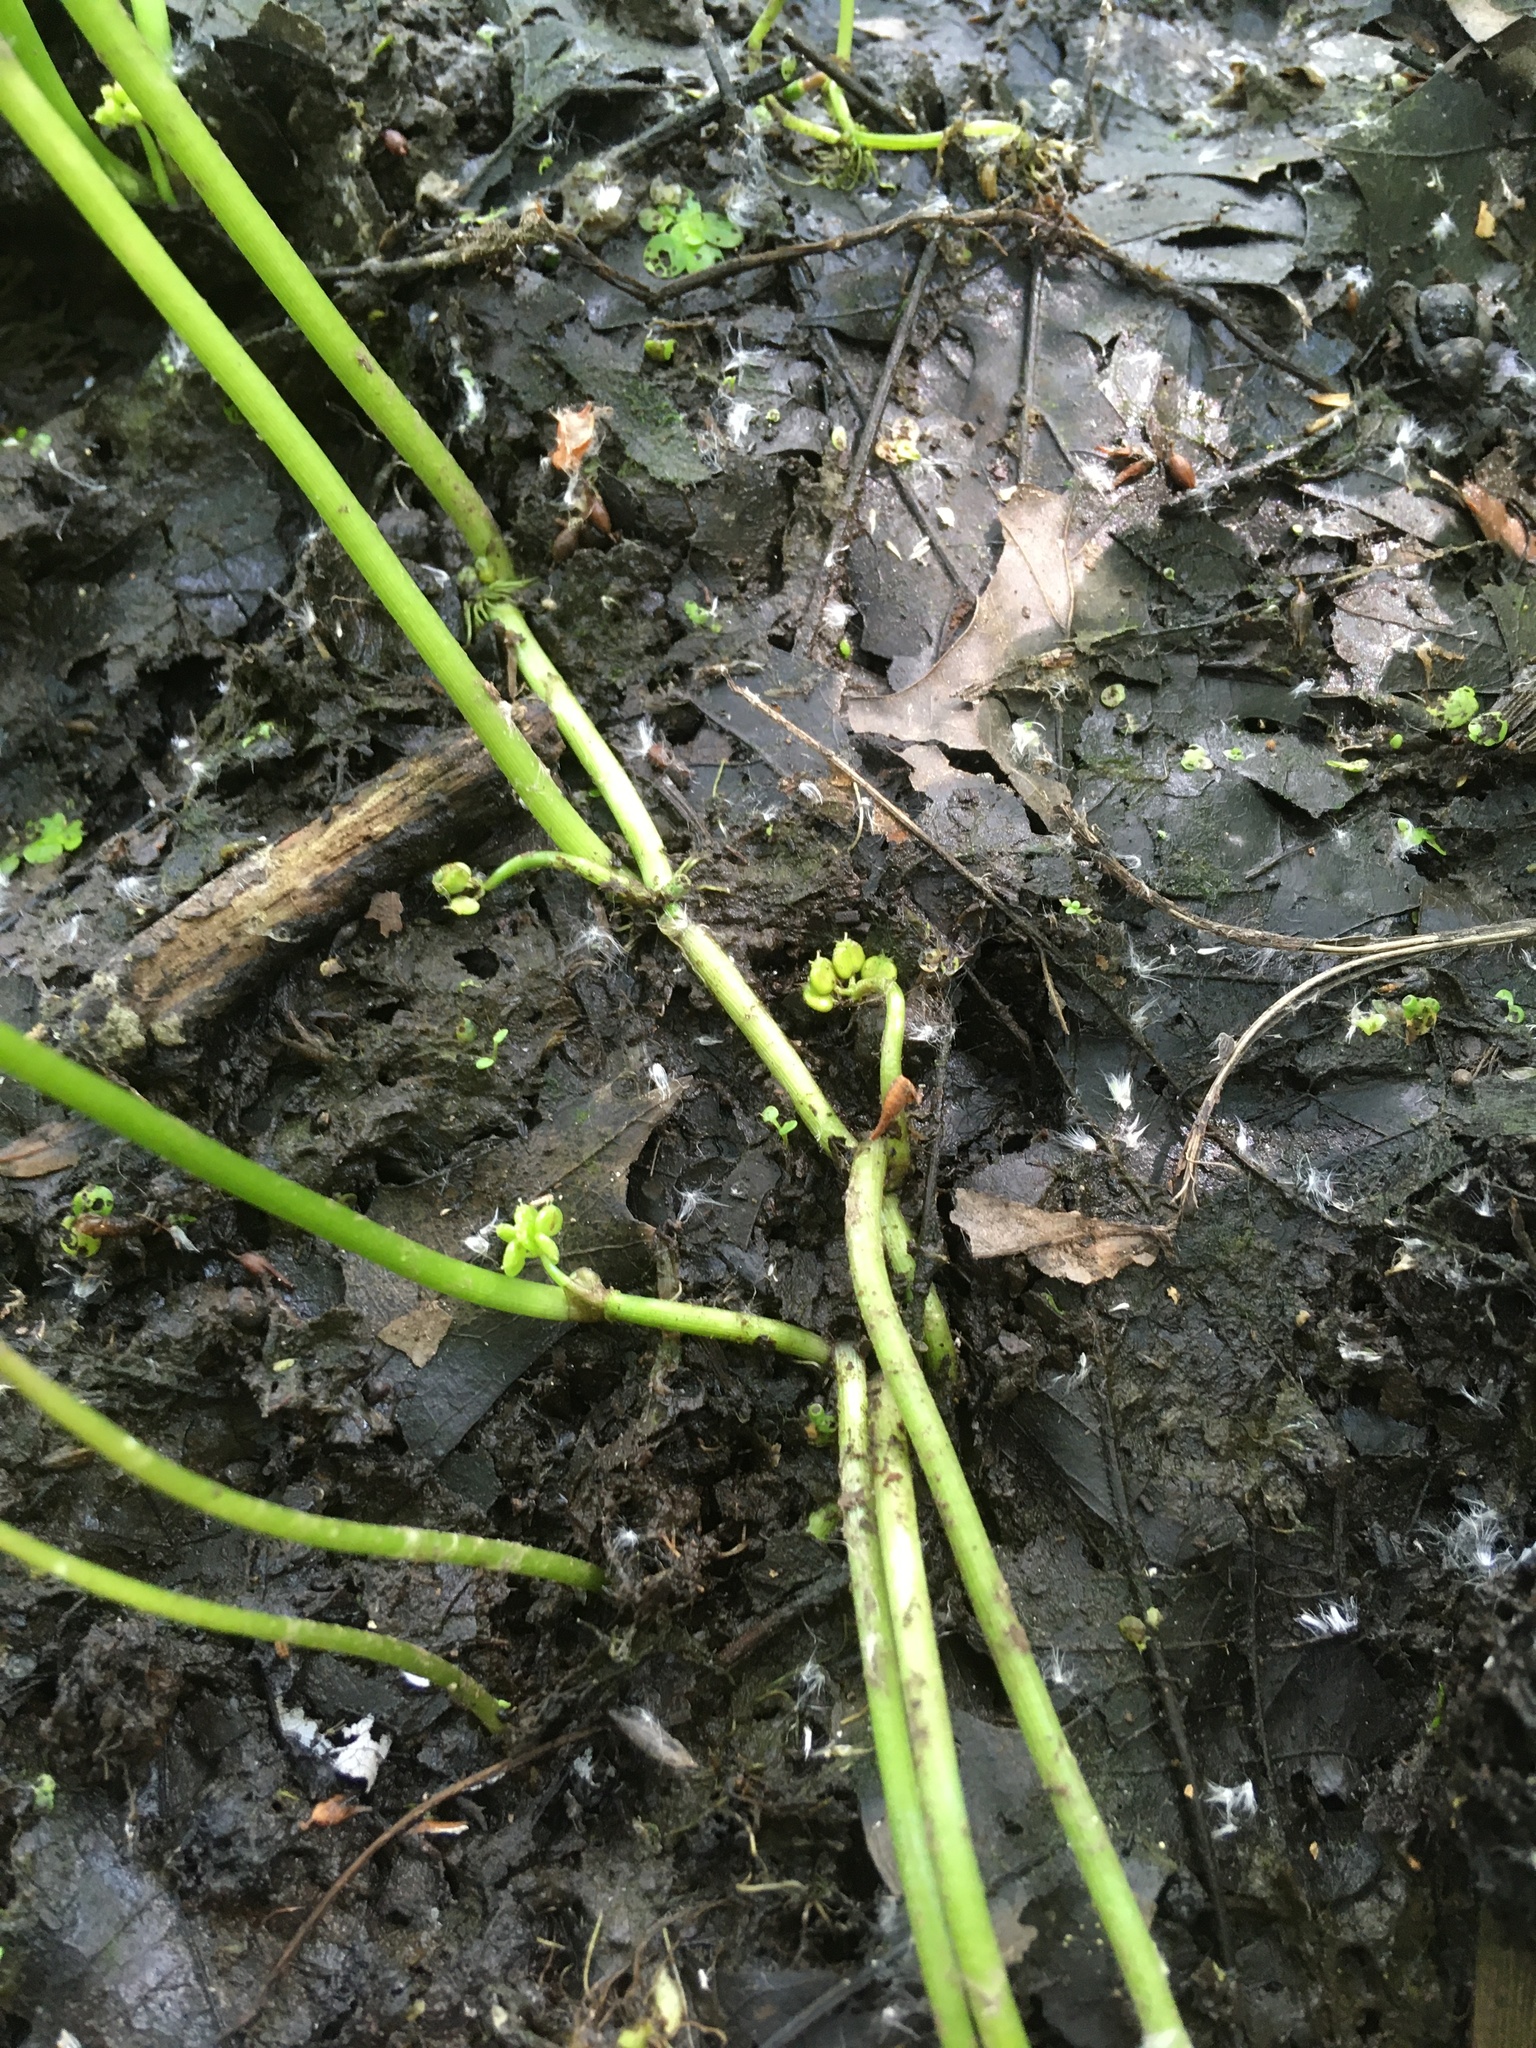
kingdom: Plantae
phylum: Tracheophyta
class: Magnoliopsida
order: Apiales
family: Araliaceae
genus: Hydrocotyle
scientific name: Hydrocotyle ranunculoides
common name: Floating pennywort
